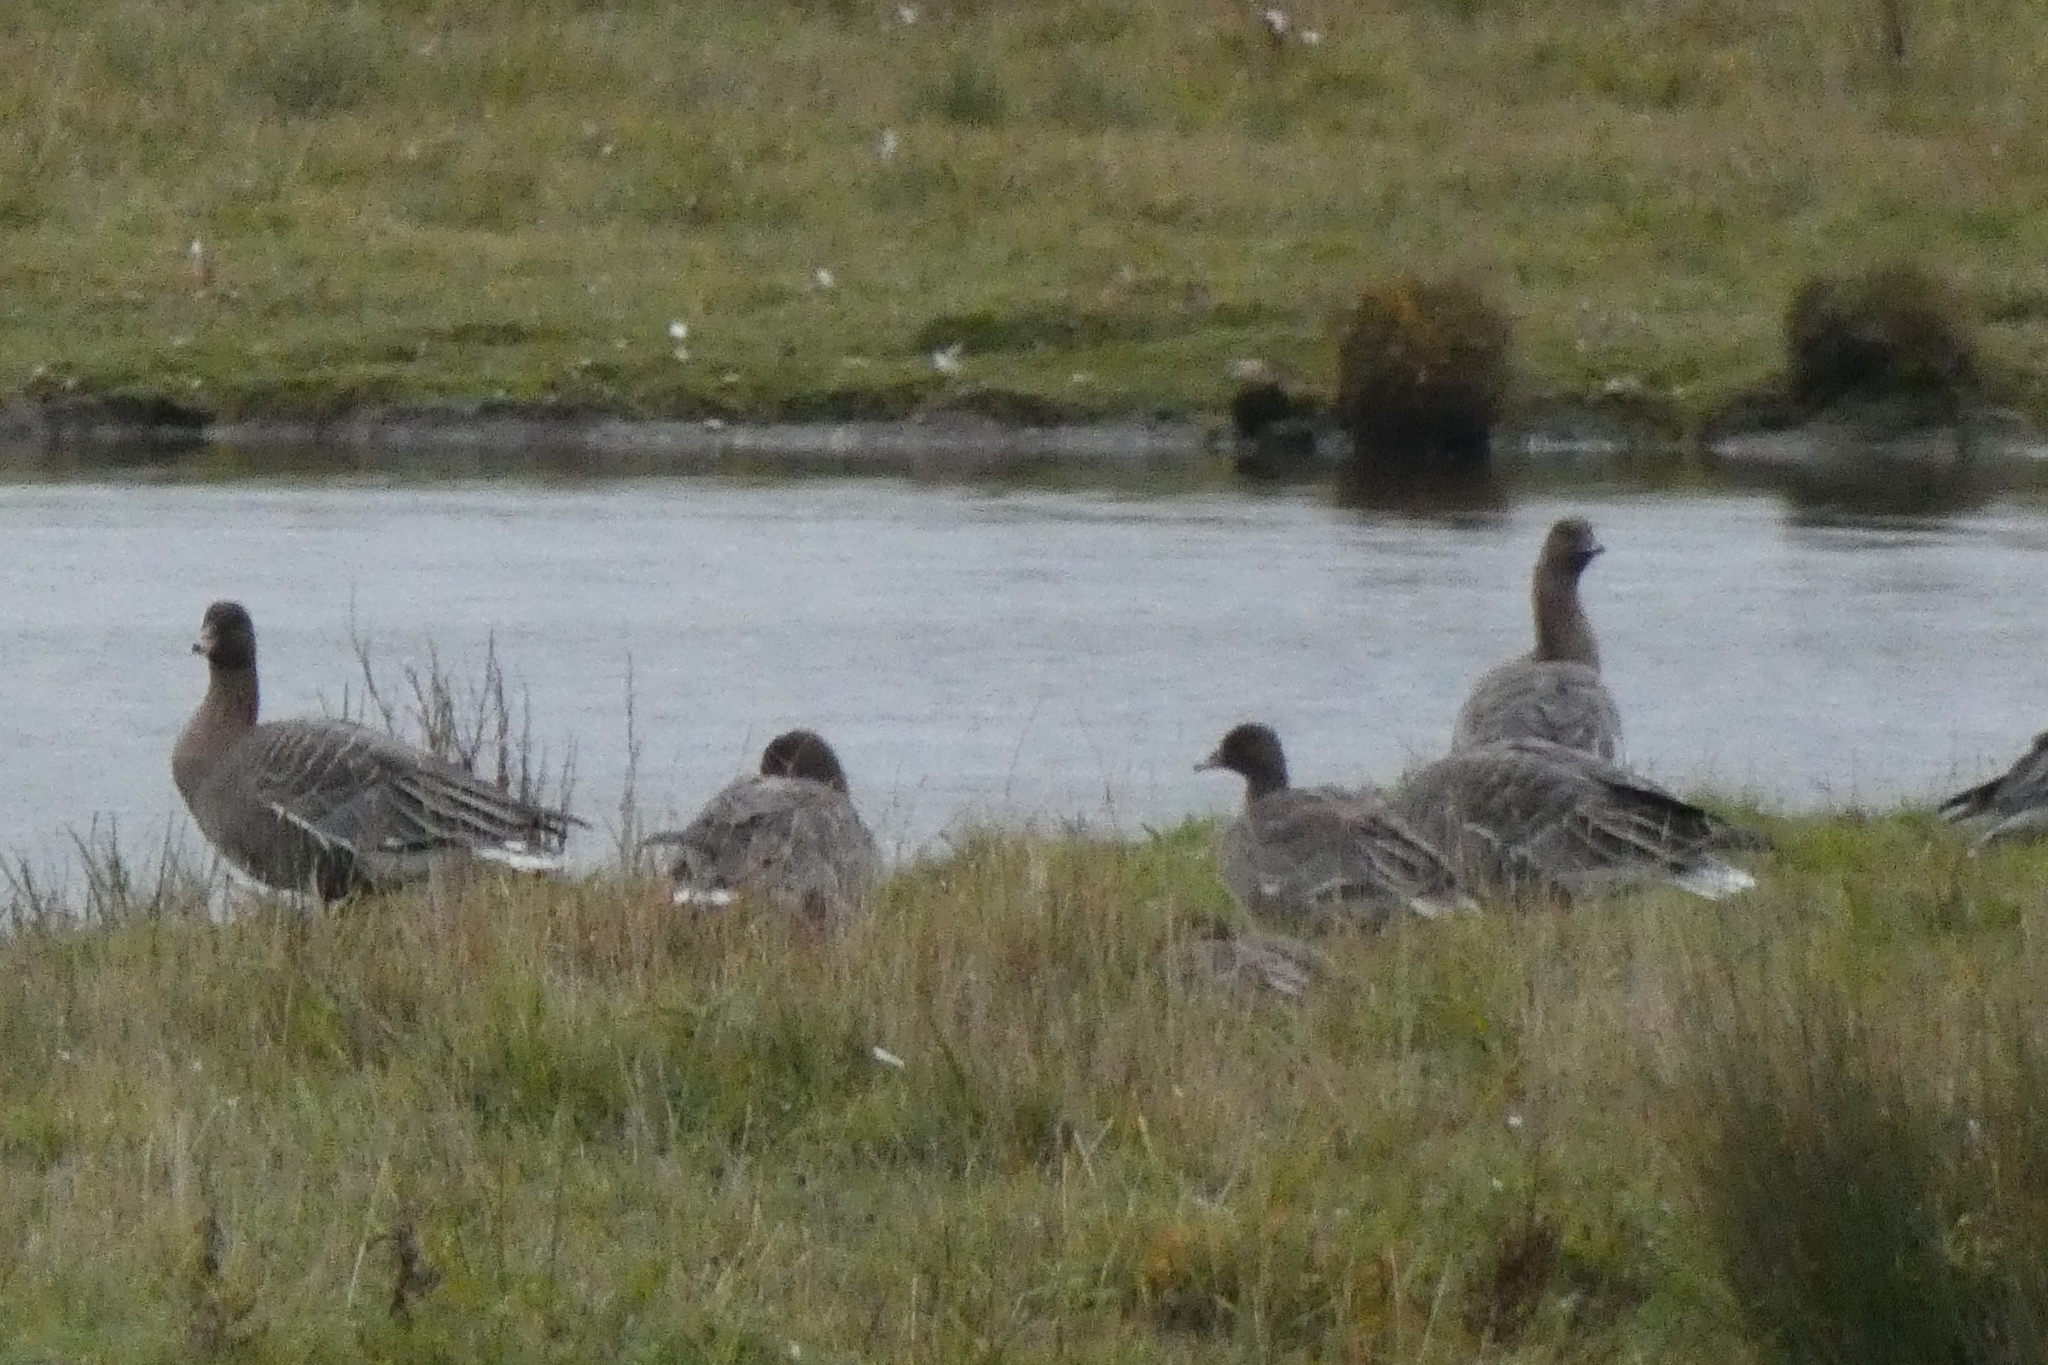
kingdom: Animalia
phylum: Chordata
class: Aves
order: Anseriformes
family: Anatidae
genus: Anser
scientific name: Anser brachyrhynchus
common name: Pink-footed goose
